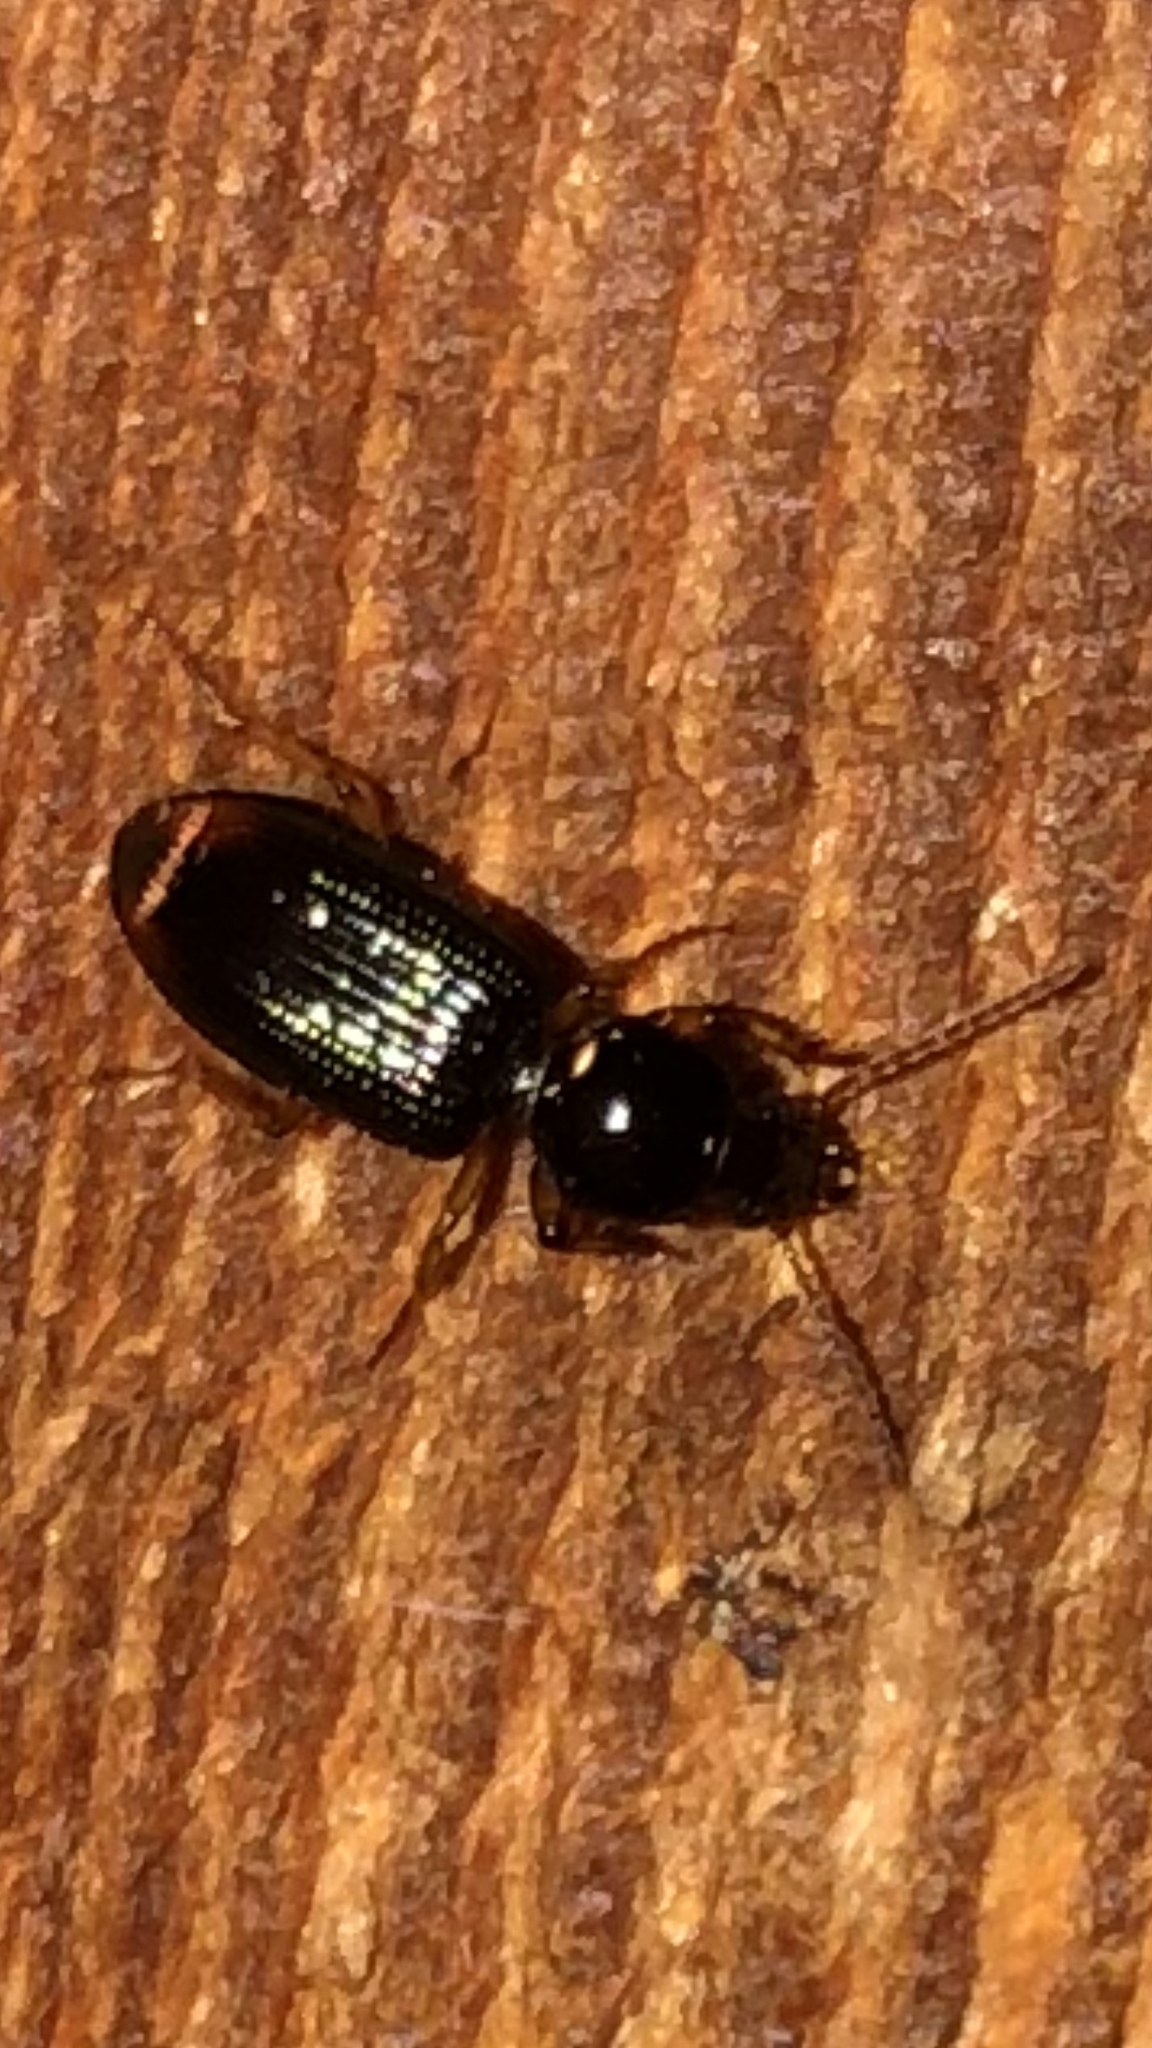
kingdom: Animalia
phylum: Arthropoda
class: Insecta
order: Coleoptera
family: Carabidae
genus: Aspidoglossa
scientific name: Aspidoglossa subangulata
